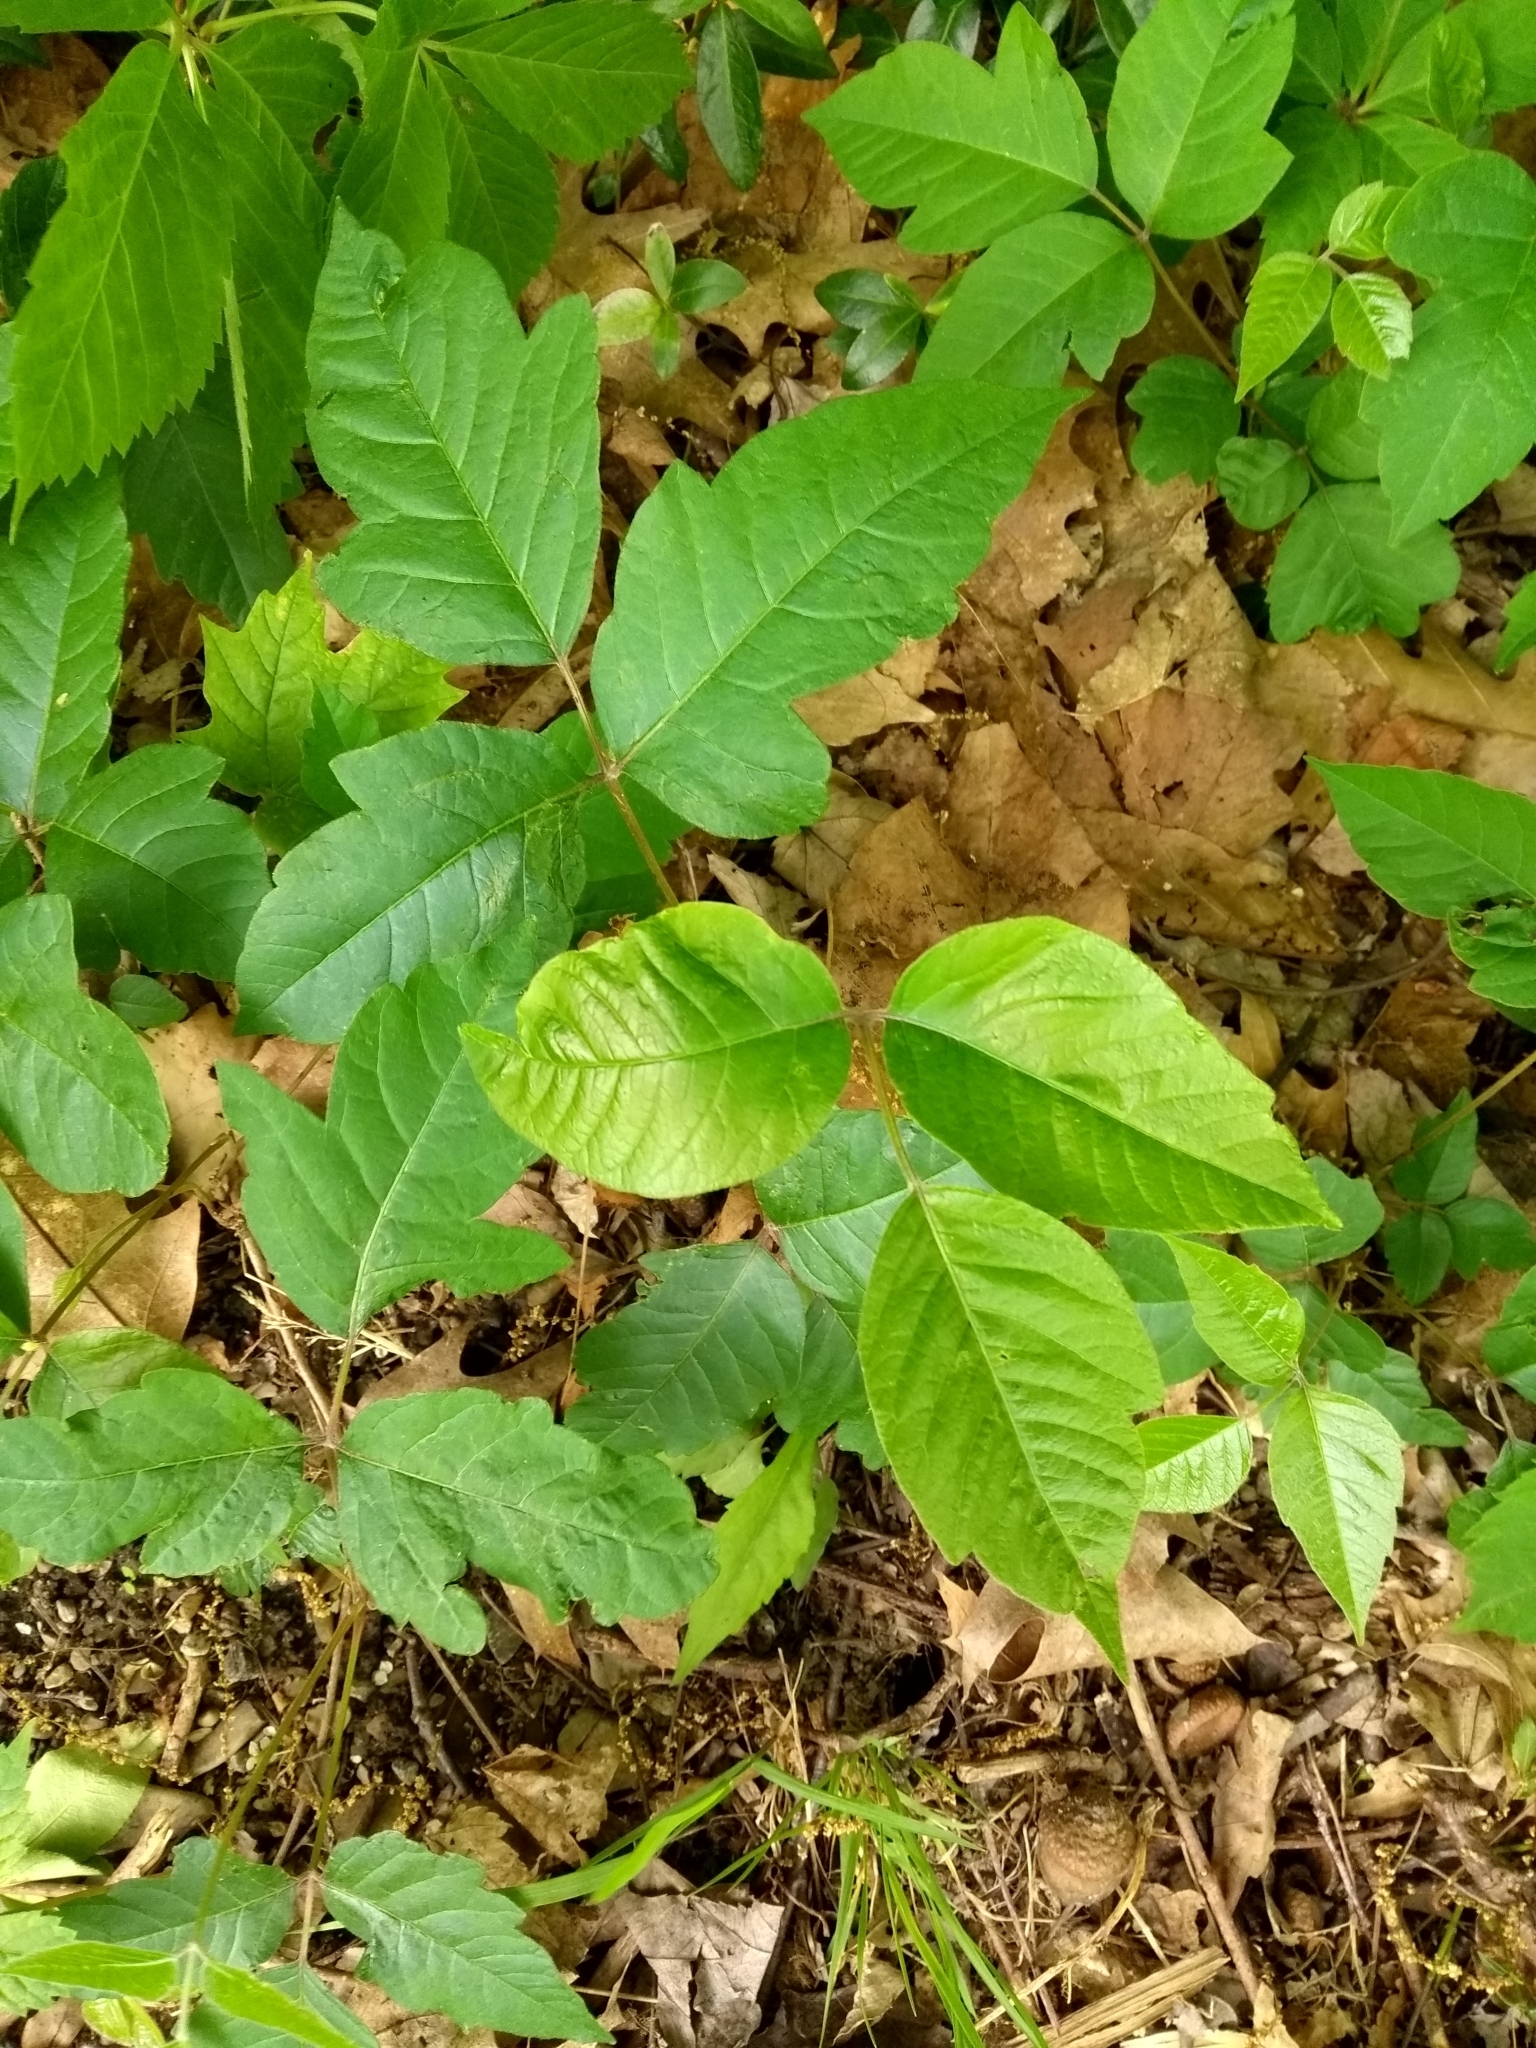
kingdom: Plantae
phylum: Tracheophyta
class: Magnoliopsida
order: Sapindales
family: Anacardiaceae
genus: Toxicodendron
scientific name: Toxicodendron radicans
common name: Poison ivy
